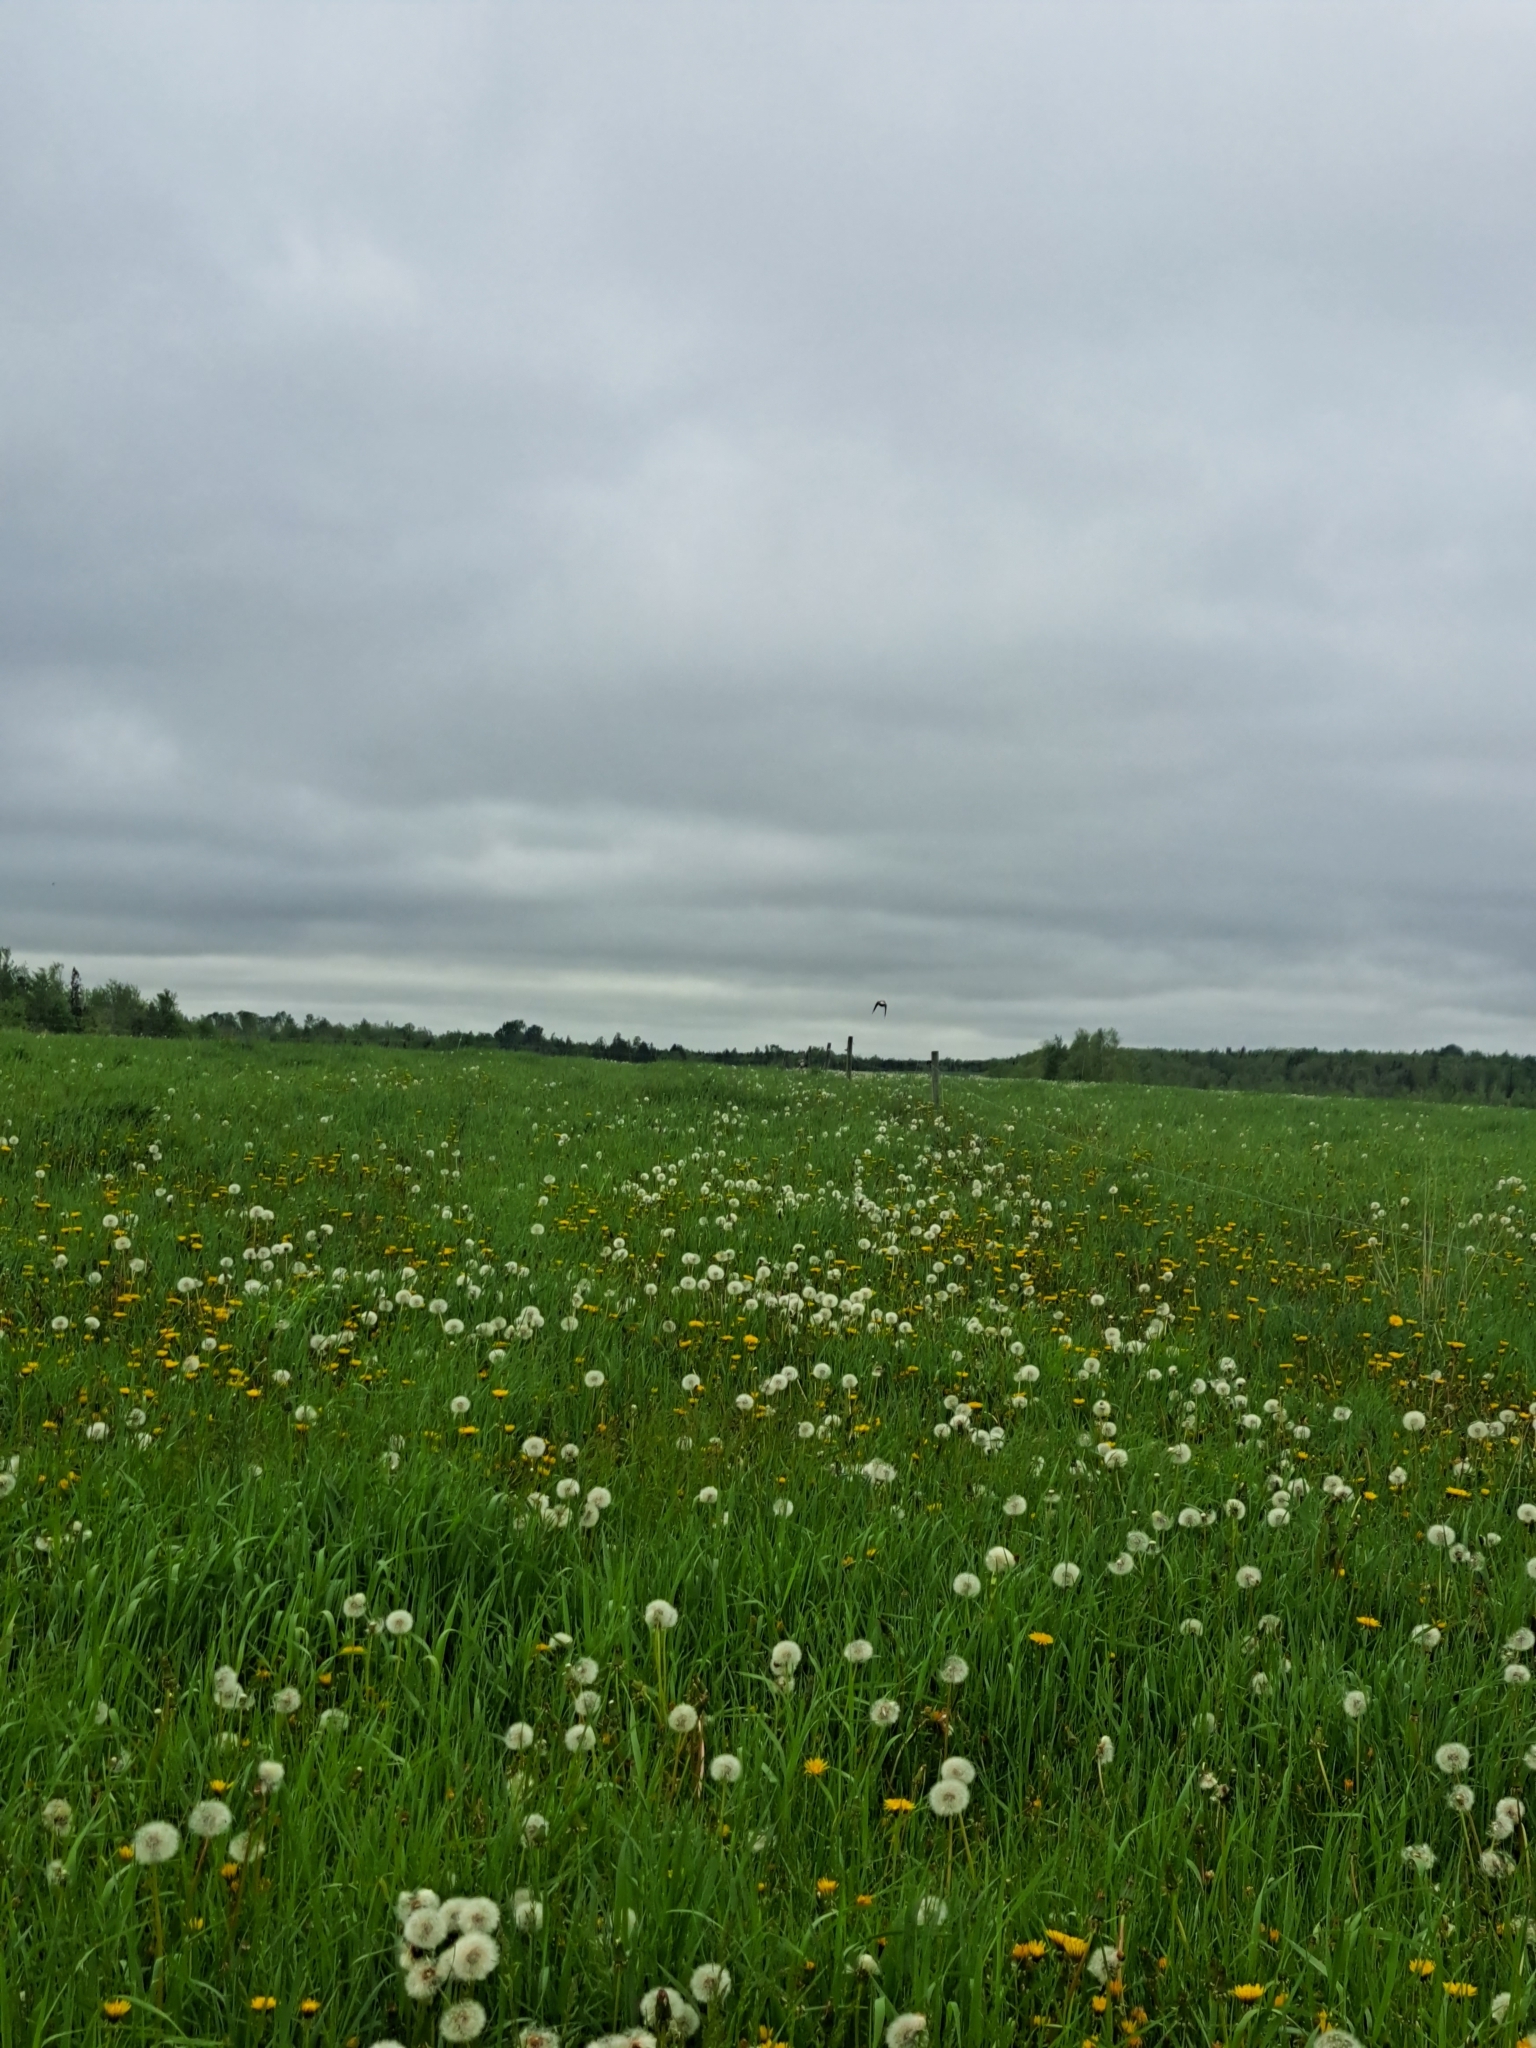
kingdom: Animalia
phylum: Chordata
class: Aves
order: Passeriformes
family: Icteridae
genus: Dolichonyx
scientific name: Dolichonyx oryzivorus
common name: Bobolink
